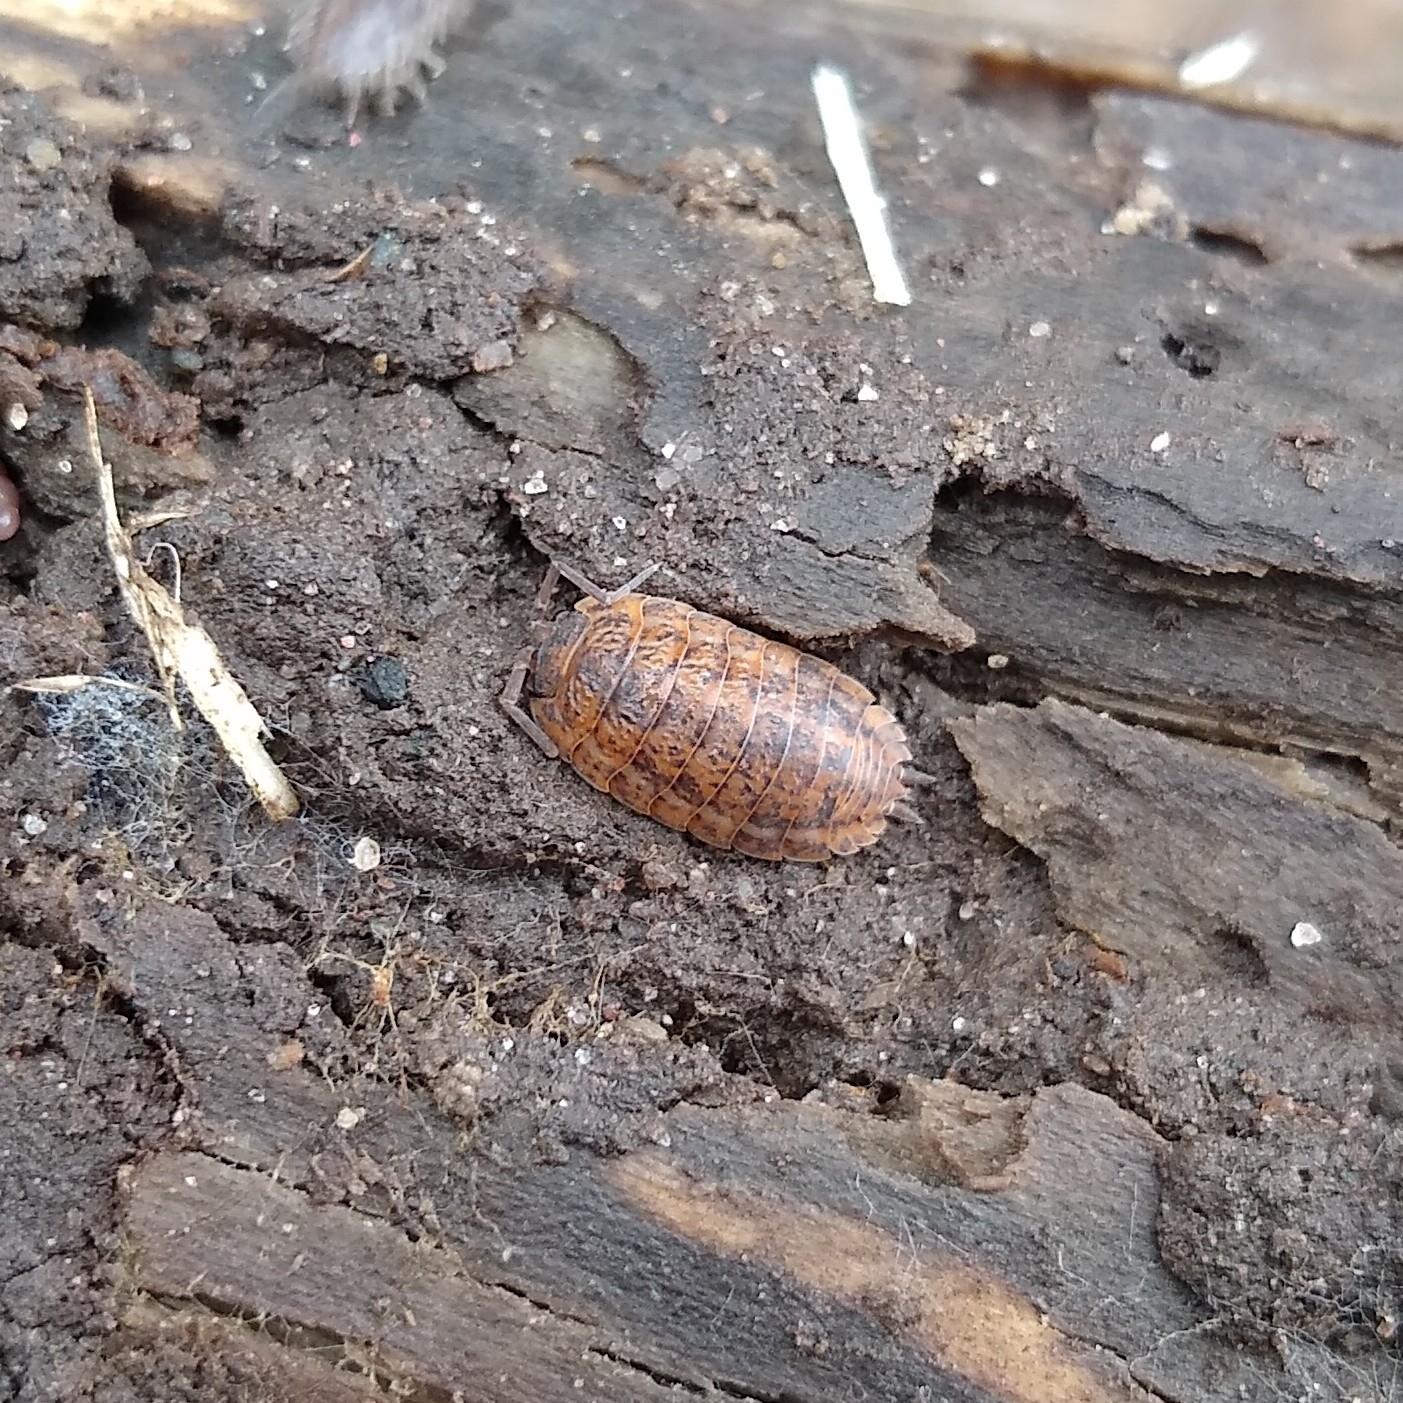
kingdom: Animalia
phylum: Arthropoda
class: Malacostraca
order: Isopoda
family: Trachelipodidae
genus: Trachelipus
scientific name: Trachelipus rathkii
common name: Isopod
